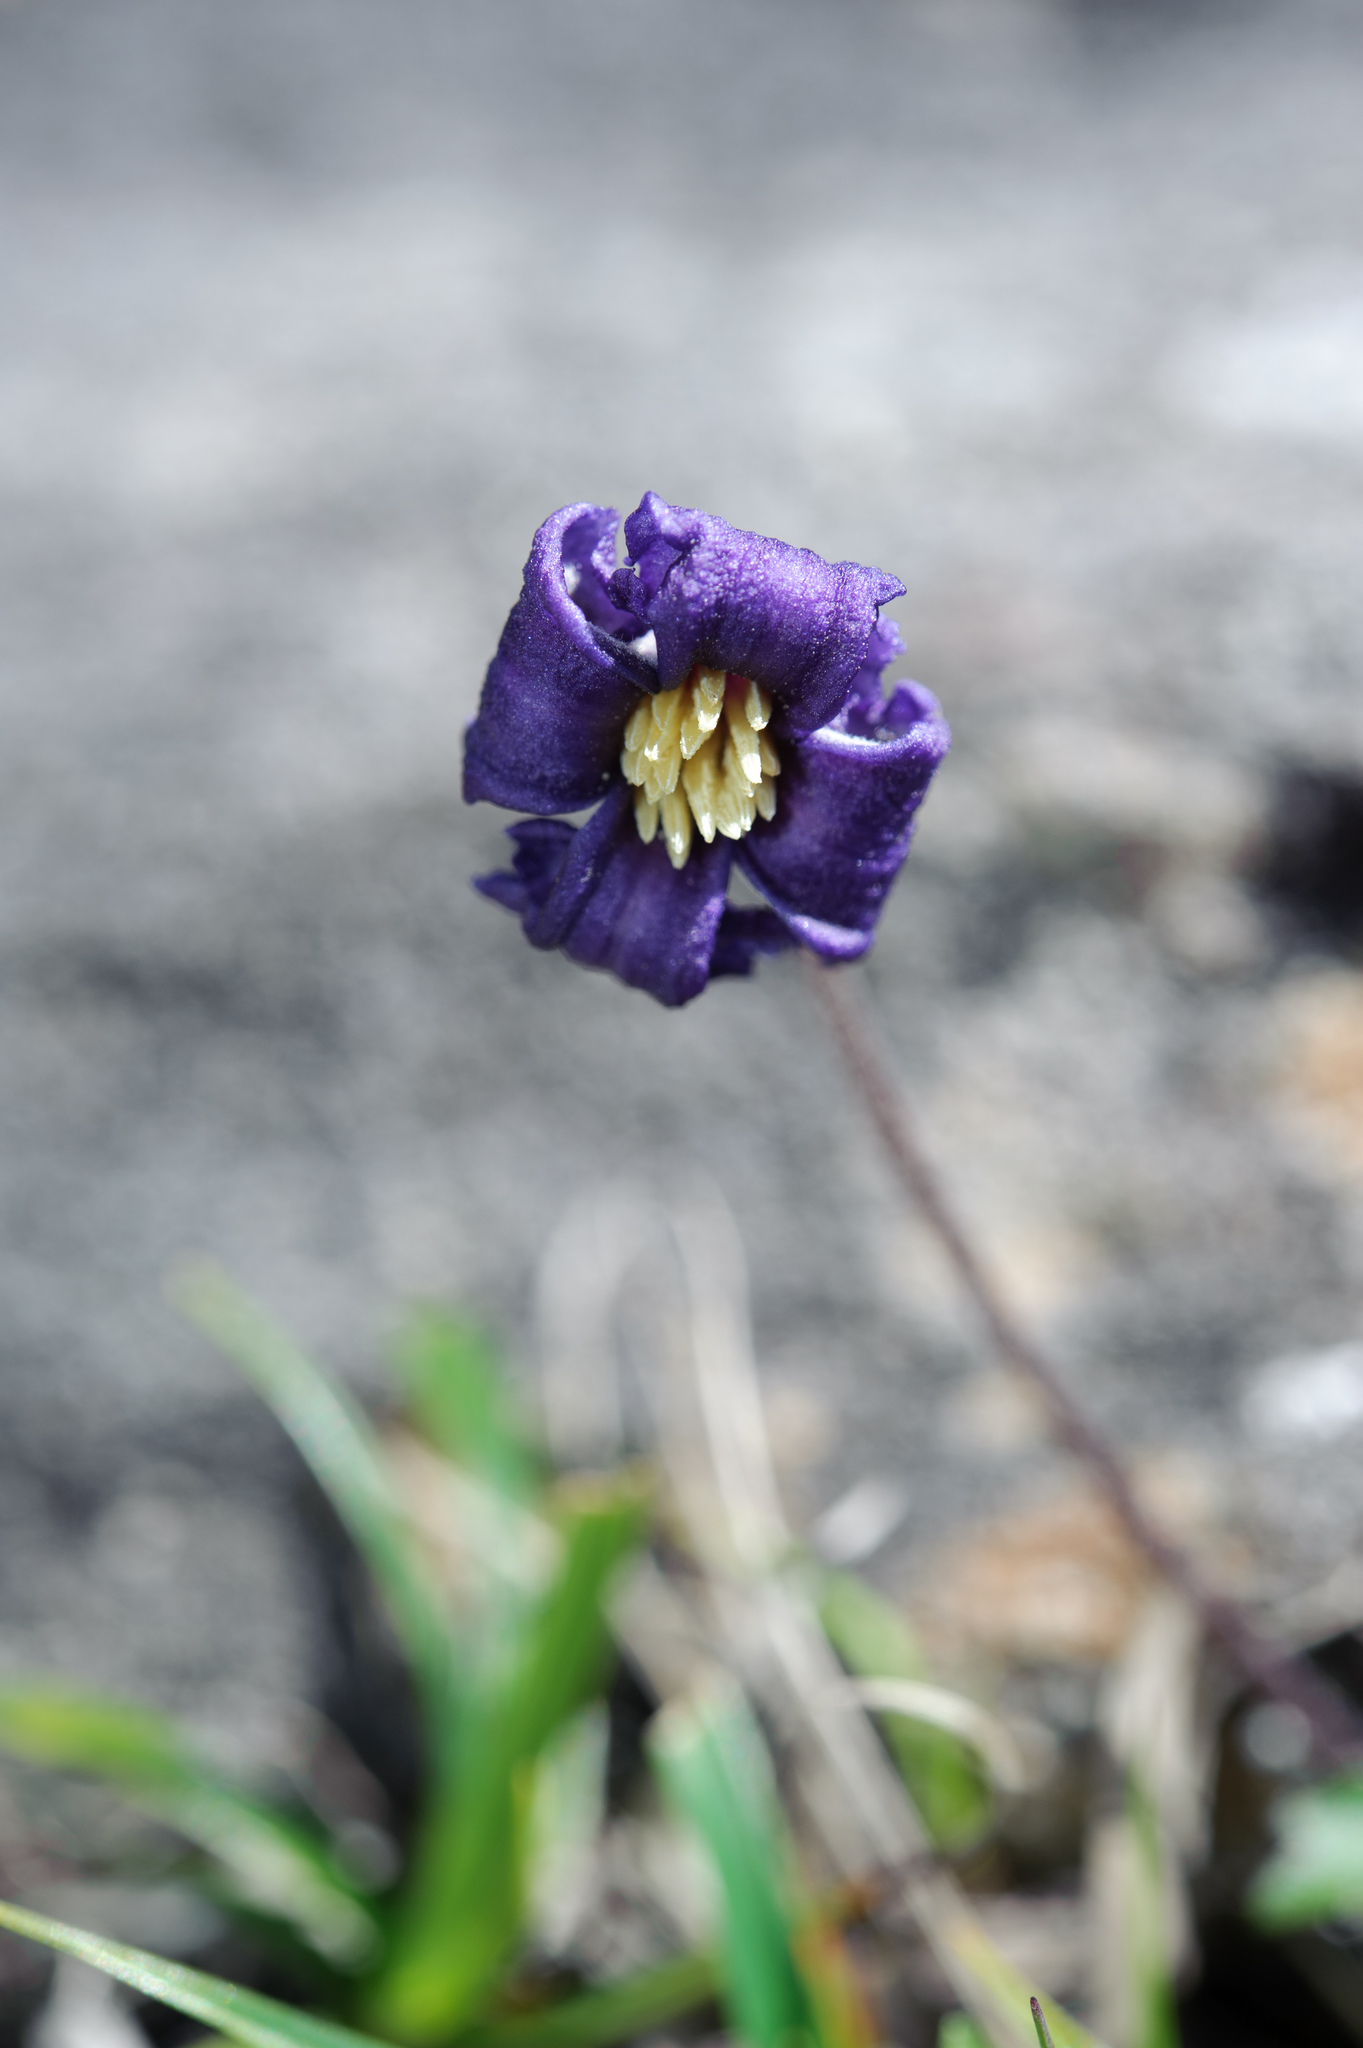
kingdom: Plantae
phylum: Tracheophyta
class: Magnoliopsida
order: Ranunculales
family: Ranunculaceae
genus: Clematis
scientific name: Clematis tsugetorum
